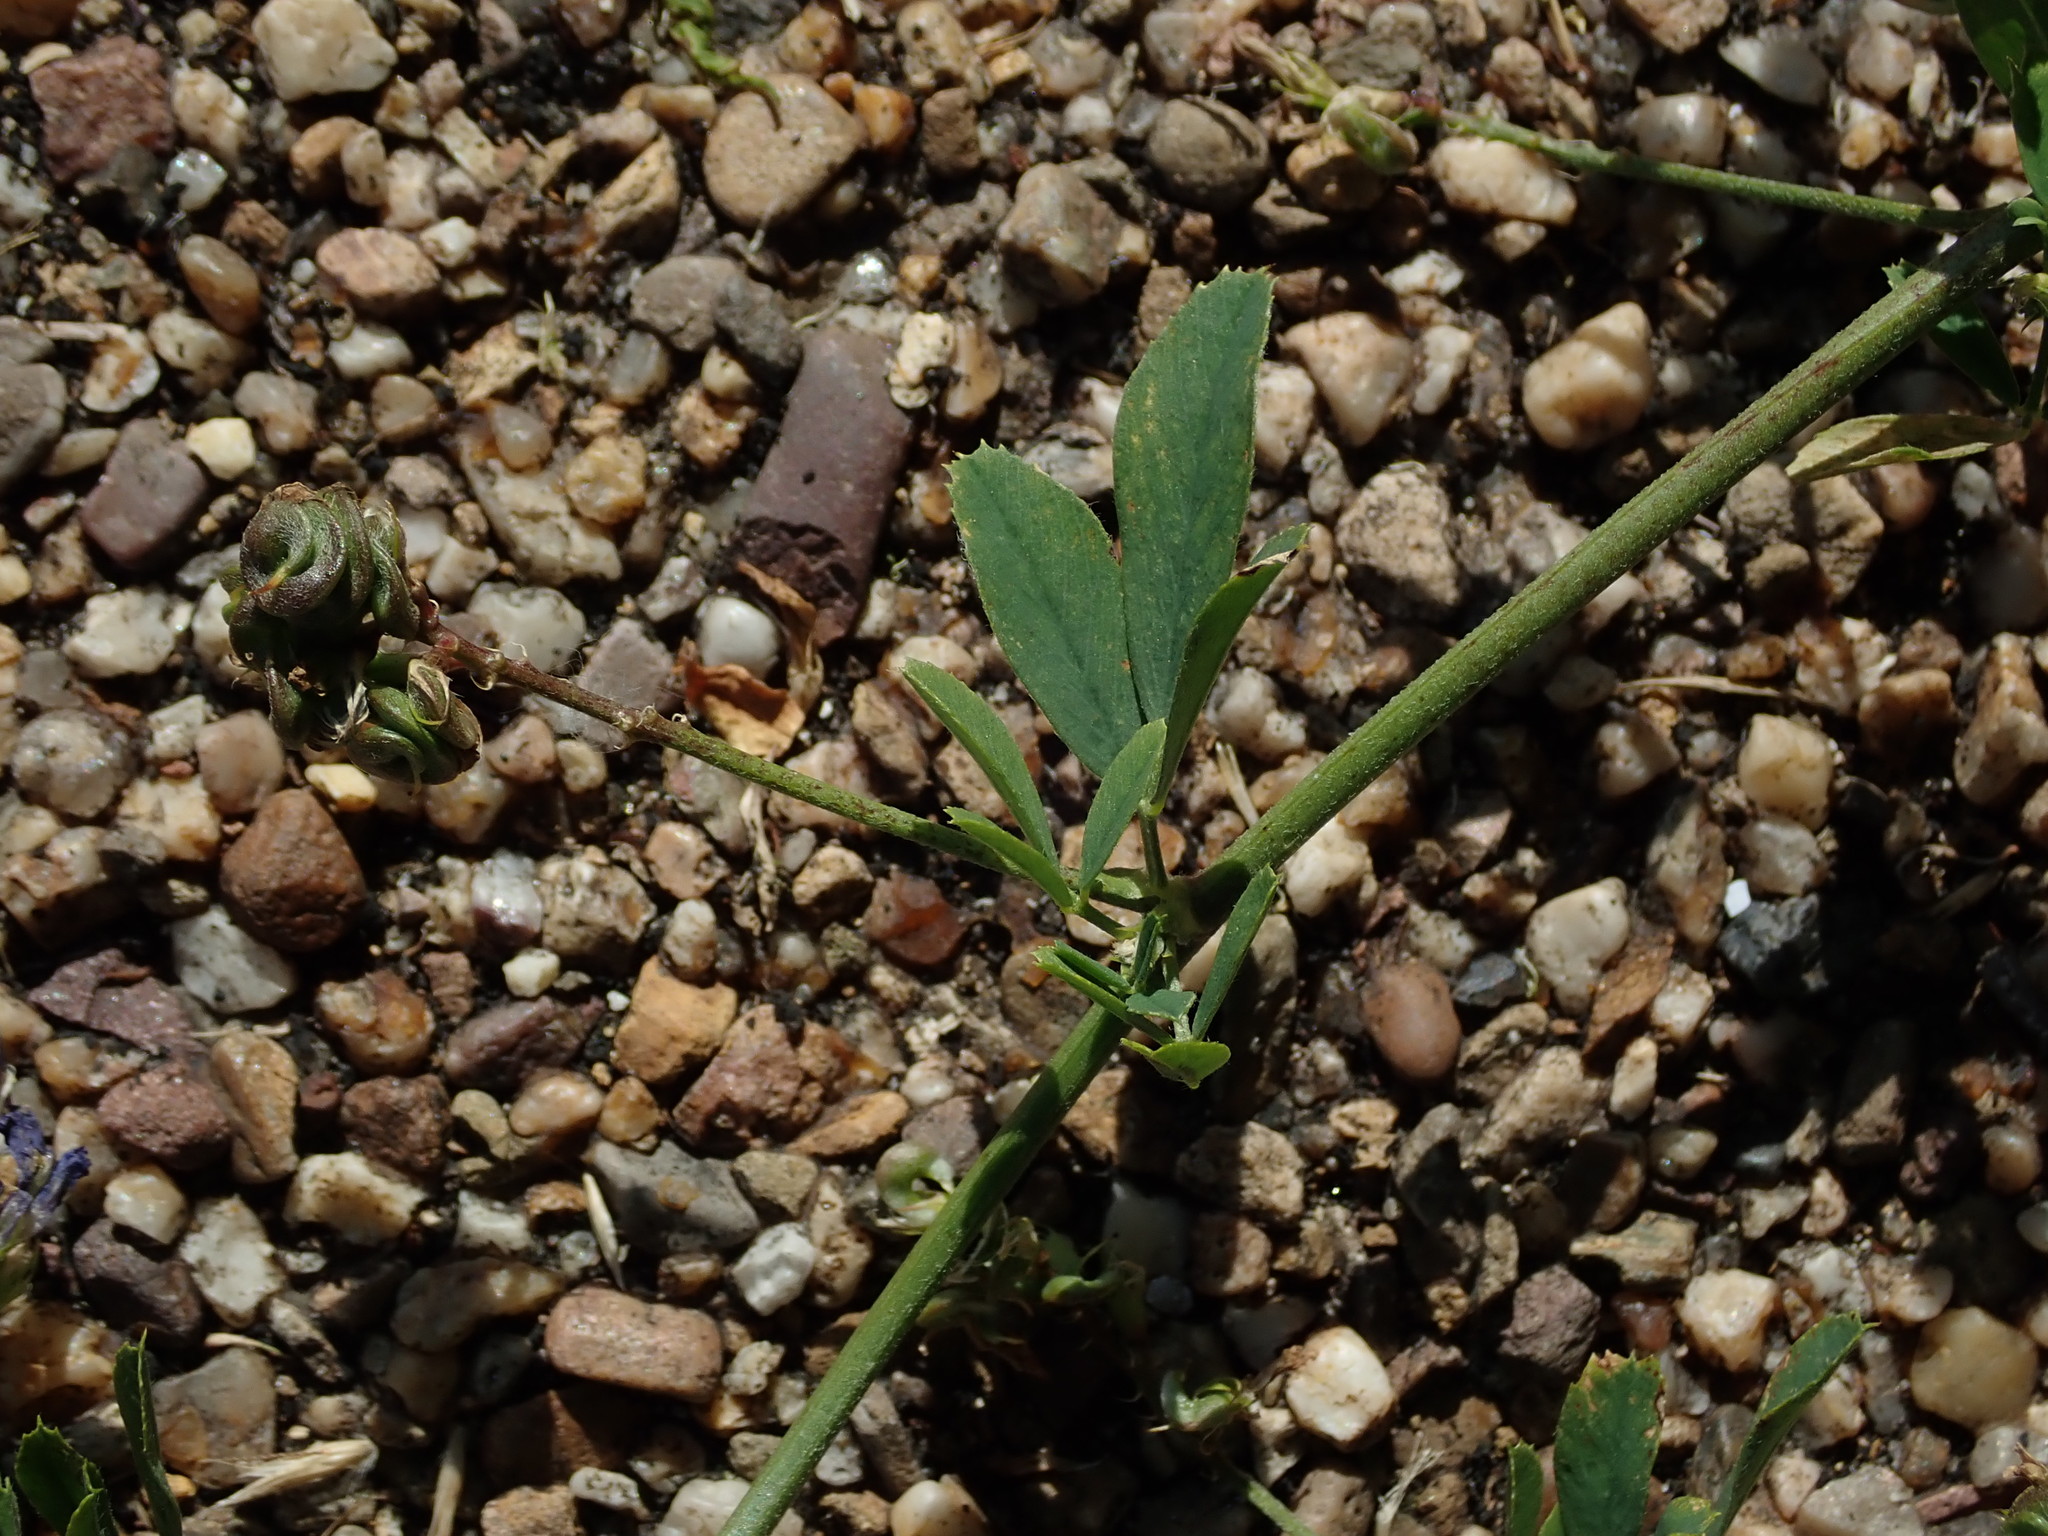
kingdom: Plantae
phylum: Tracheophyta
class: Magnoliopsida
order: Fabales
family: Fabaceae
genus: Medicago
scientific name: Medicago sativa
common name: Alfalfa
